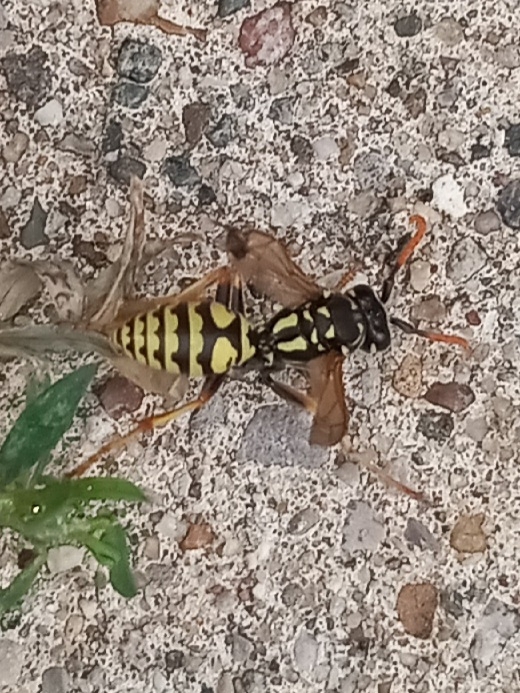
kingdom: Animalia
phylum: Arthropoda
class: Insecta
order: Hymenoptera
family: Eumenidae
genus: Polistes
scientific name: Polistes dominula
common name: Paper wasp
